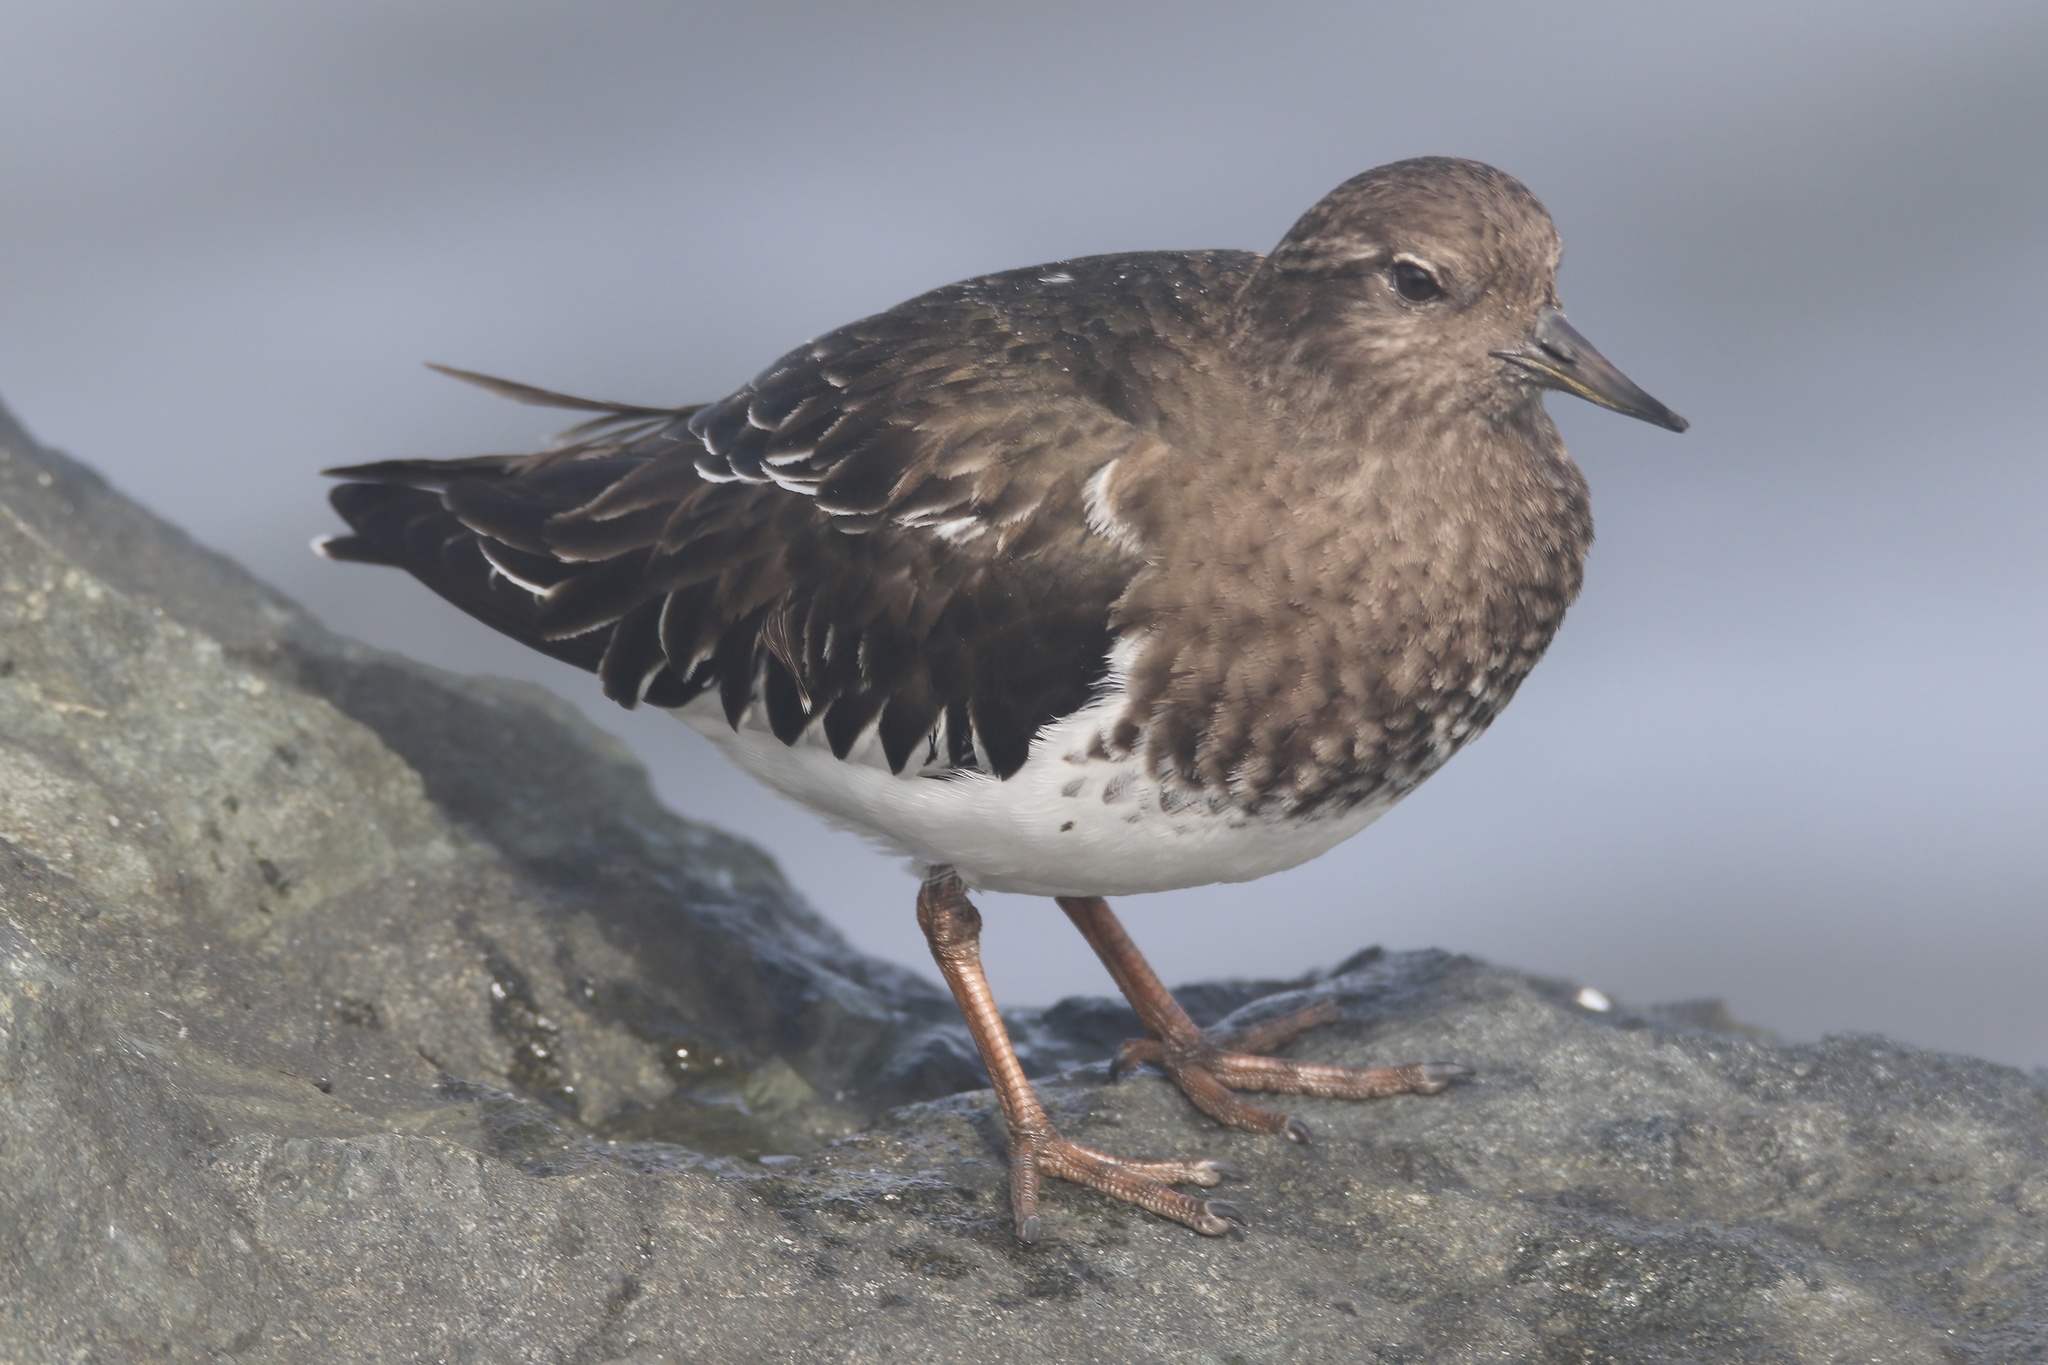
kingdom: Animalia
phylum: Chordata
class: Aves
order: Charadriiformes
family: Scolopacidae
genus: Arenaria
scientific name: Arenaria melanocephala
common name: Black turnstone
